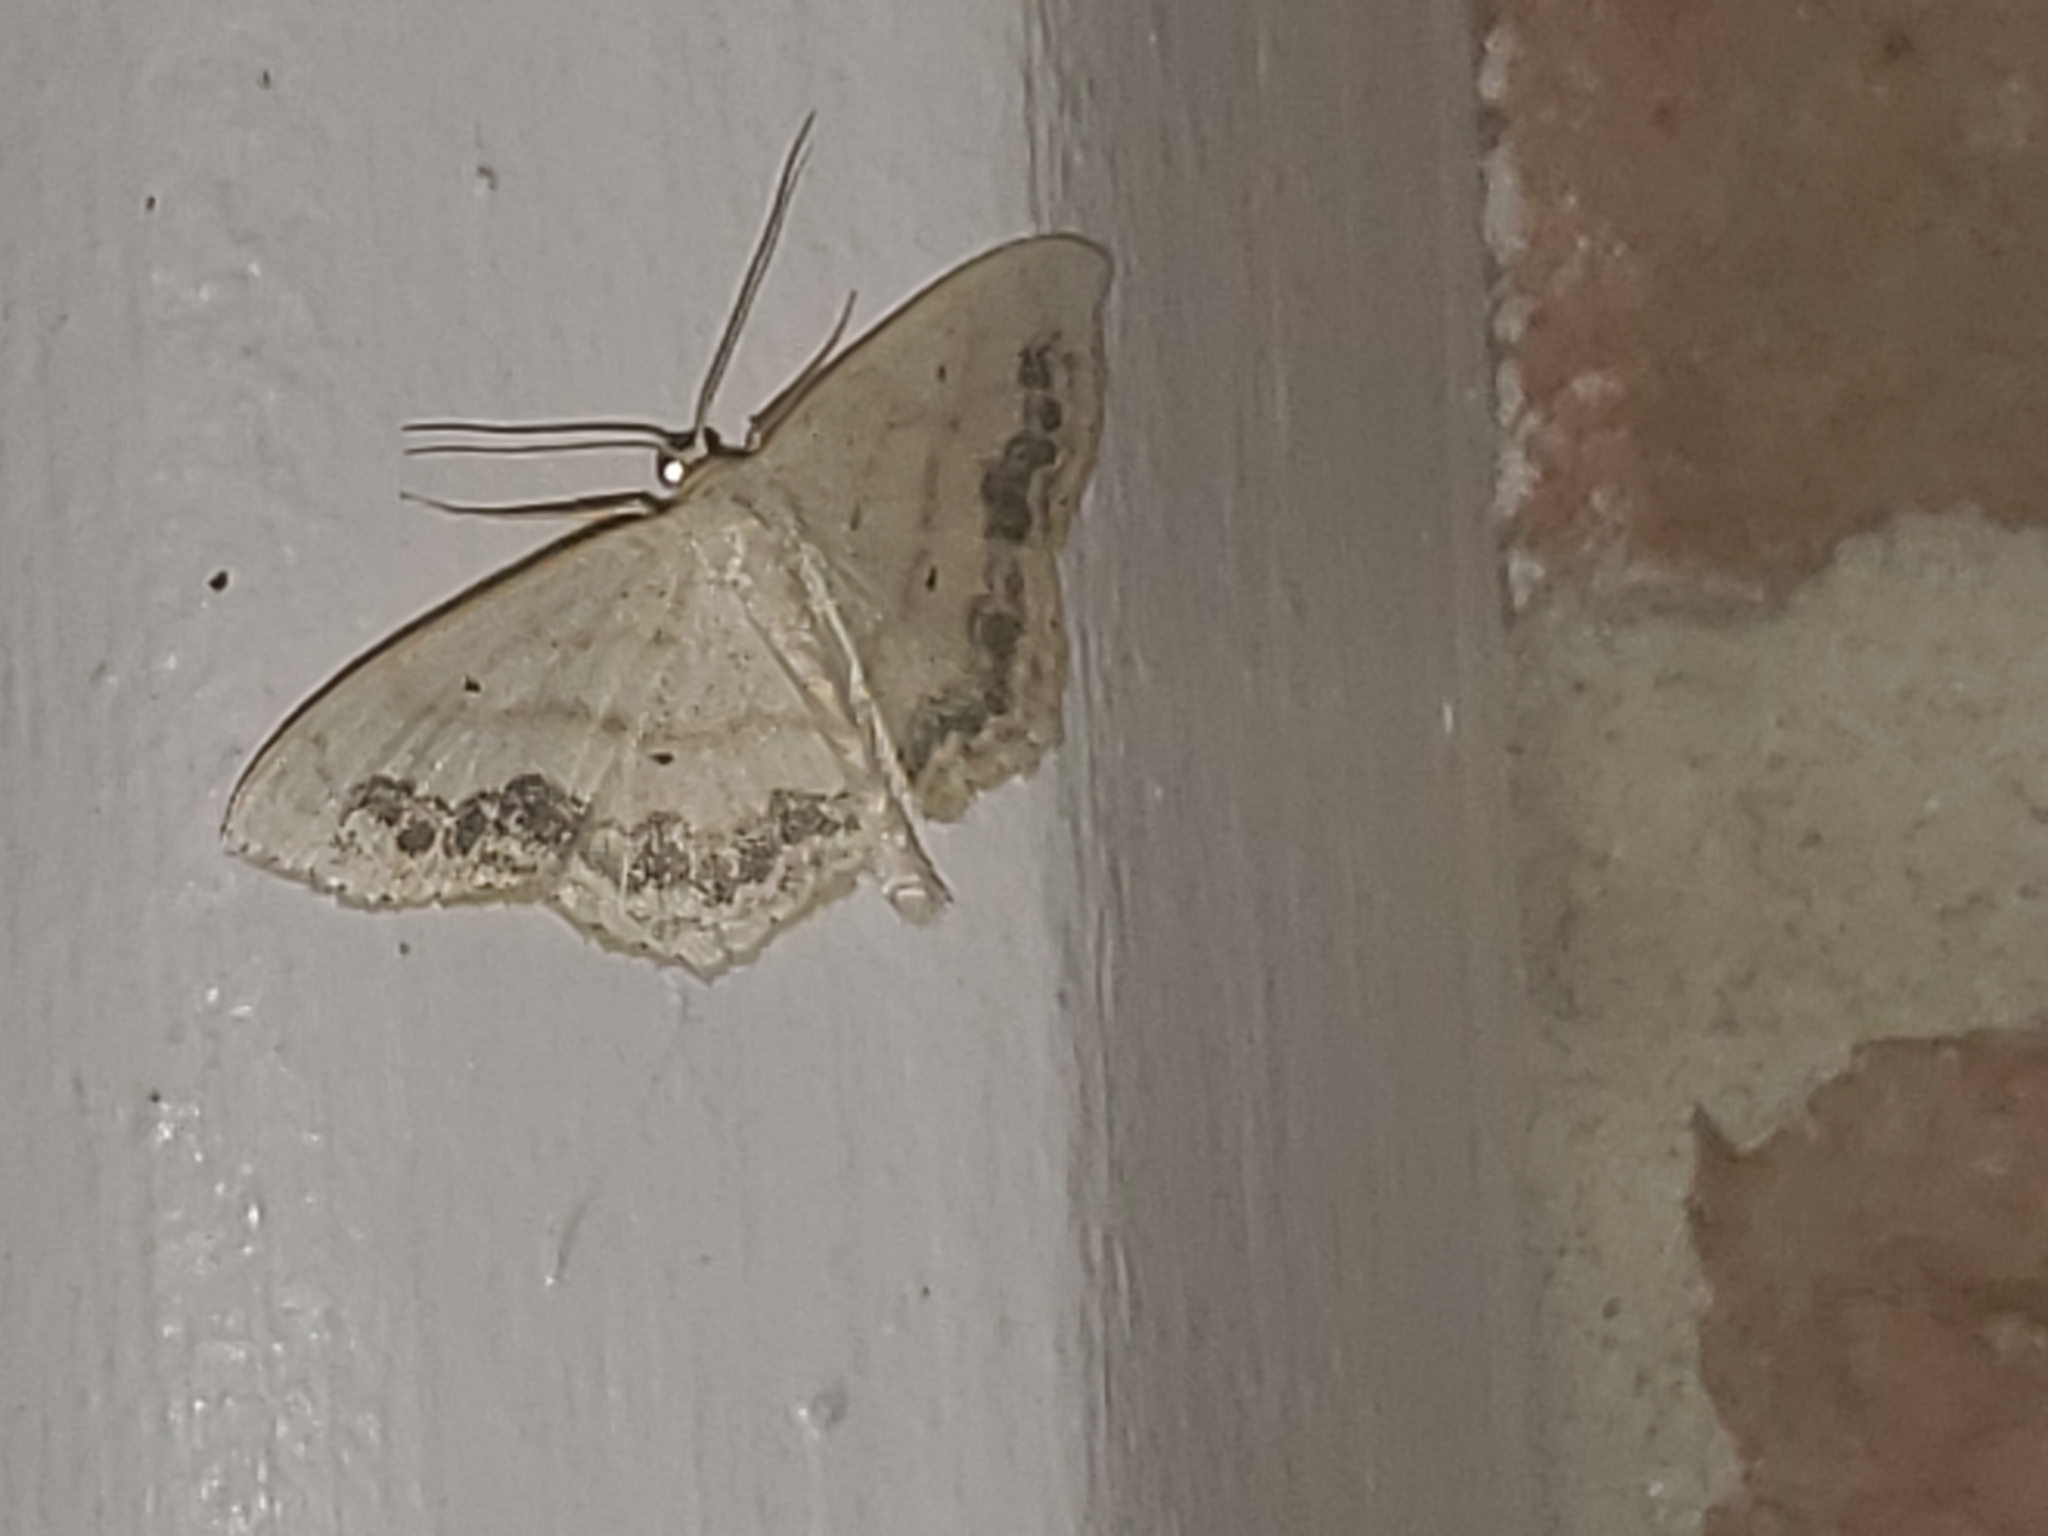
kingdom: Animalia
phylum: Arthropoda
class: Insecta
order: Lepidoptera
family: Geometridae
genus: Scopula
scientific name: Scopula limboundata
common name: Large lace border
